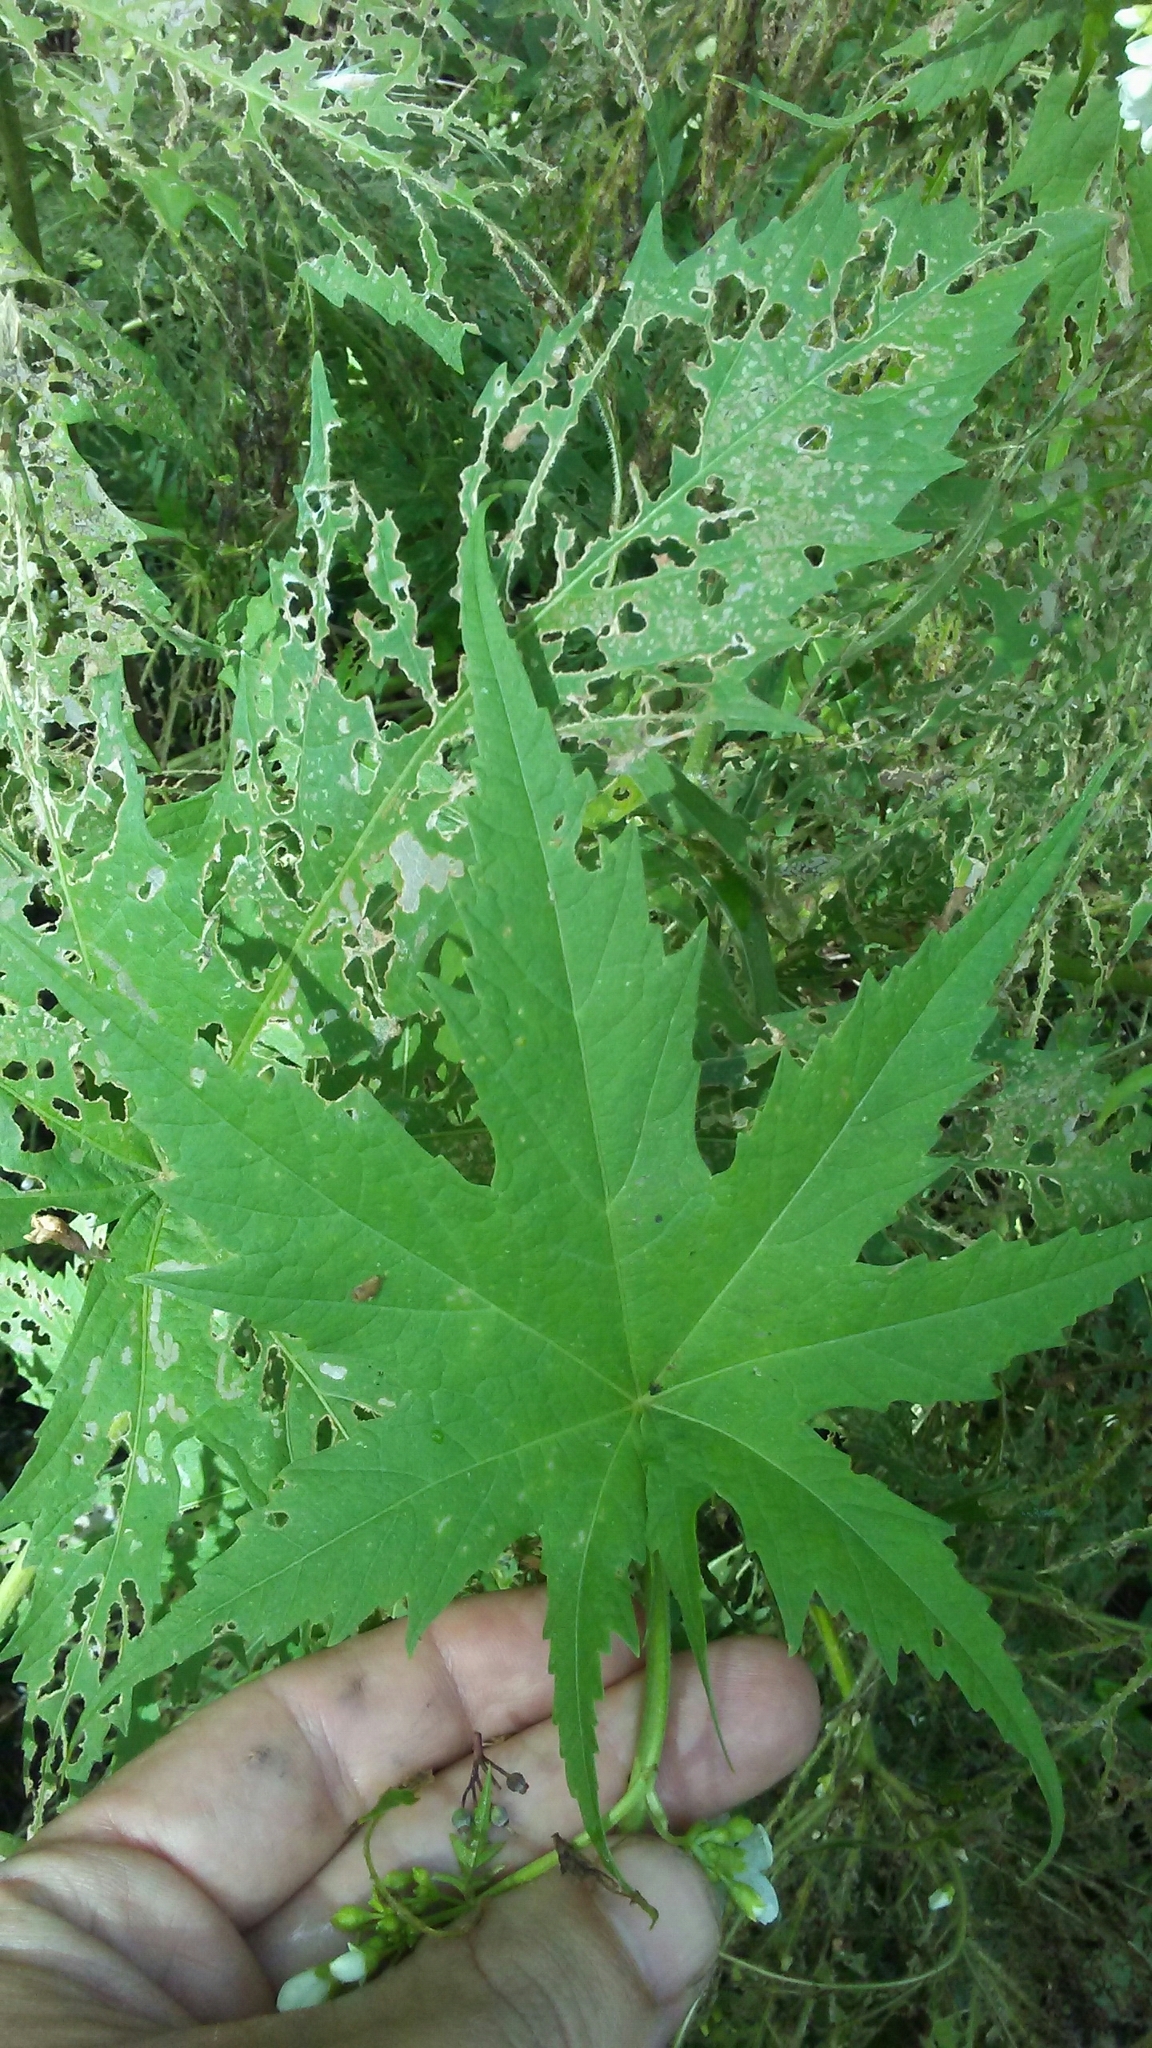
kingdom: Plantae
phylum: Tracheophyta
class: Magnoliopsida
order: Malvales
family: Malvaceae
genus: Napaea
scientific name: Napaea dioica
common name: Glade-mallow
